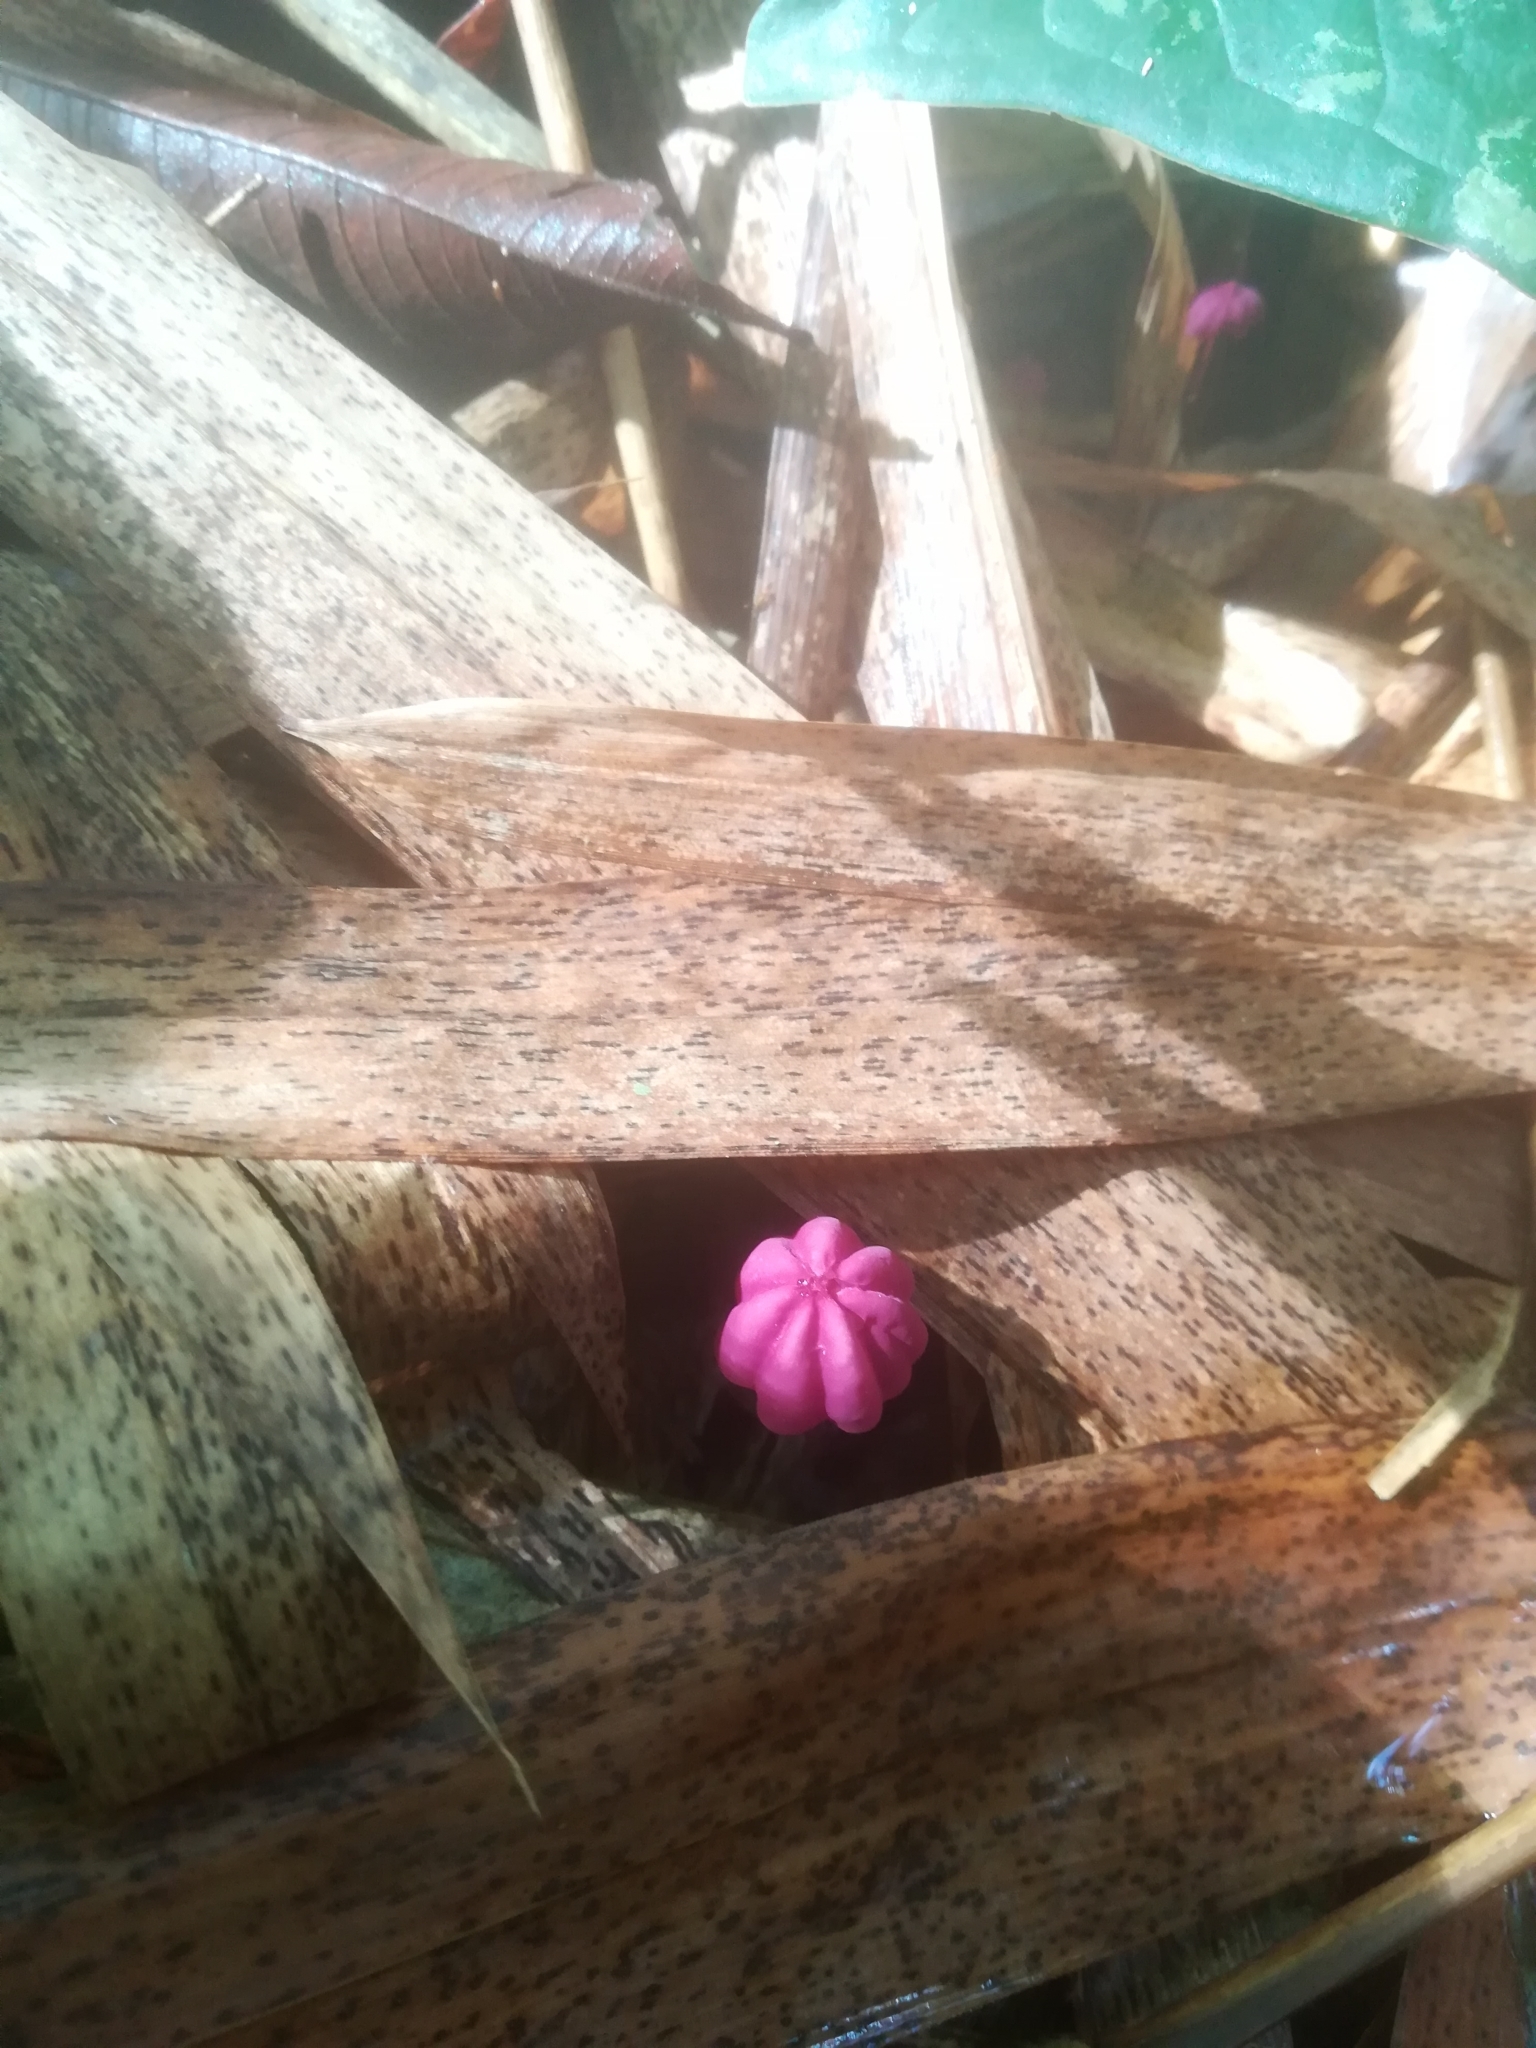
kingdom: Fungi
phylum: Basidiomycota
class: Agaricomycetes
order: Agaricales
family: Marasmiaceae
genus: Marasmius
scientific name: Marasmius haematocephalus
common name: Purple pinwheel
